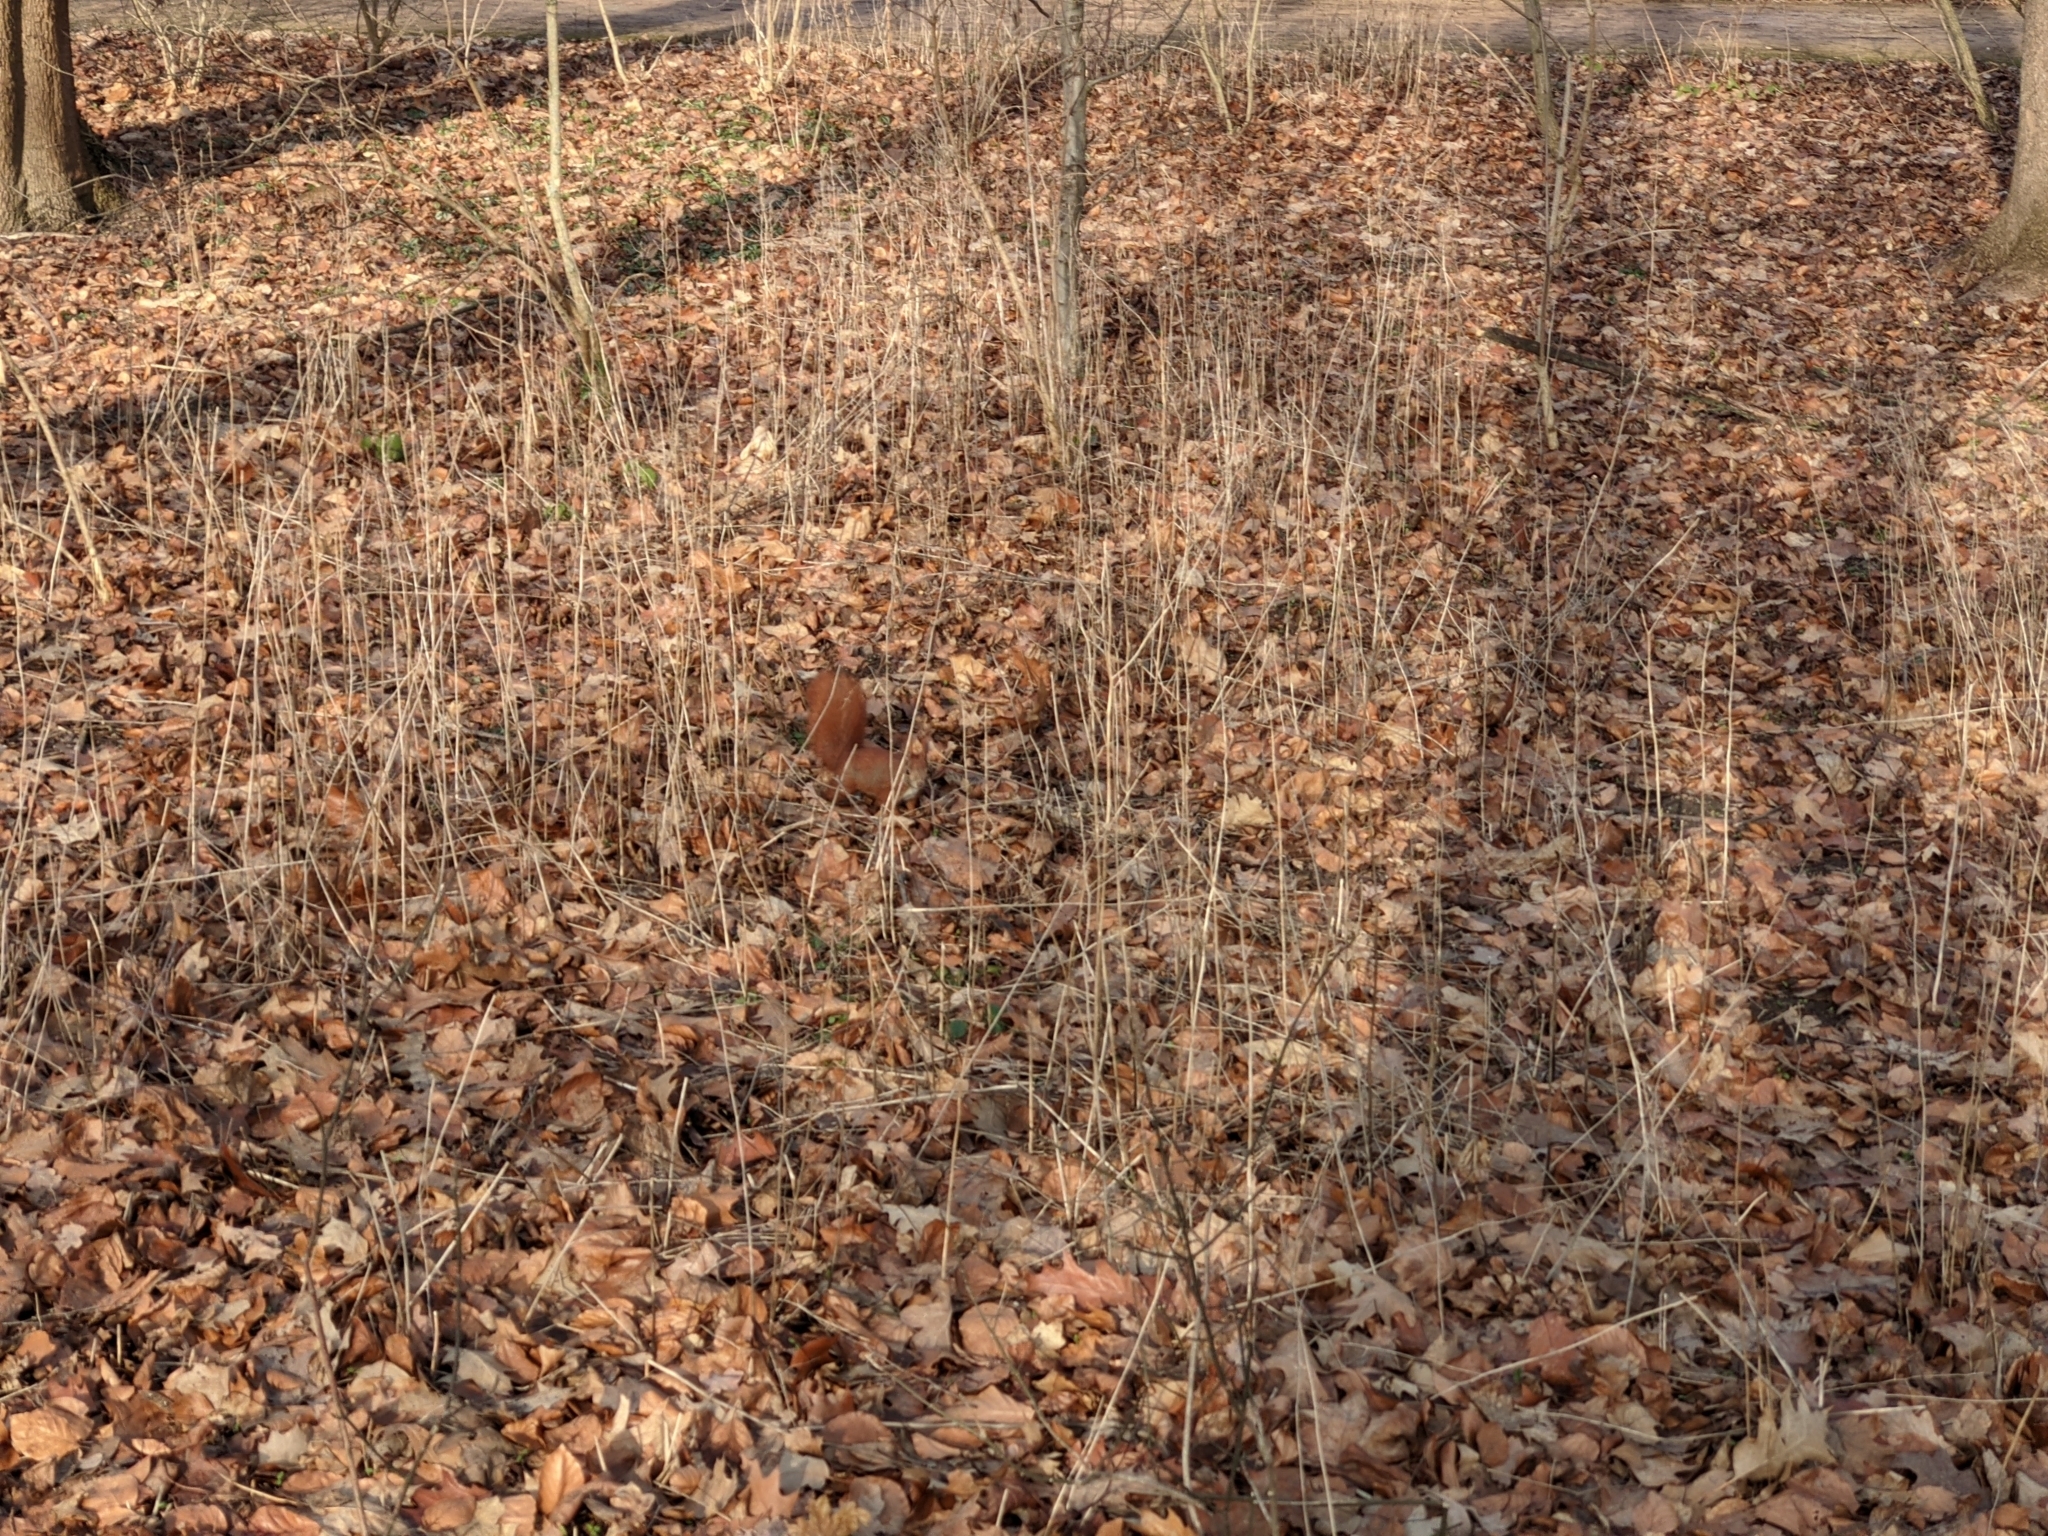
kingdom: Animalia
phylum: Chordata
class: Mammalia
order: Rodentia
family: Sciuridae
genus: Sciurus
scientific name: Sciurus vulgaris
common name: Eurasian red squirrel
